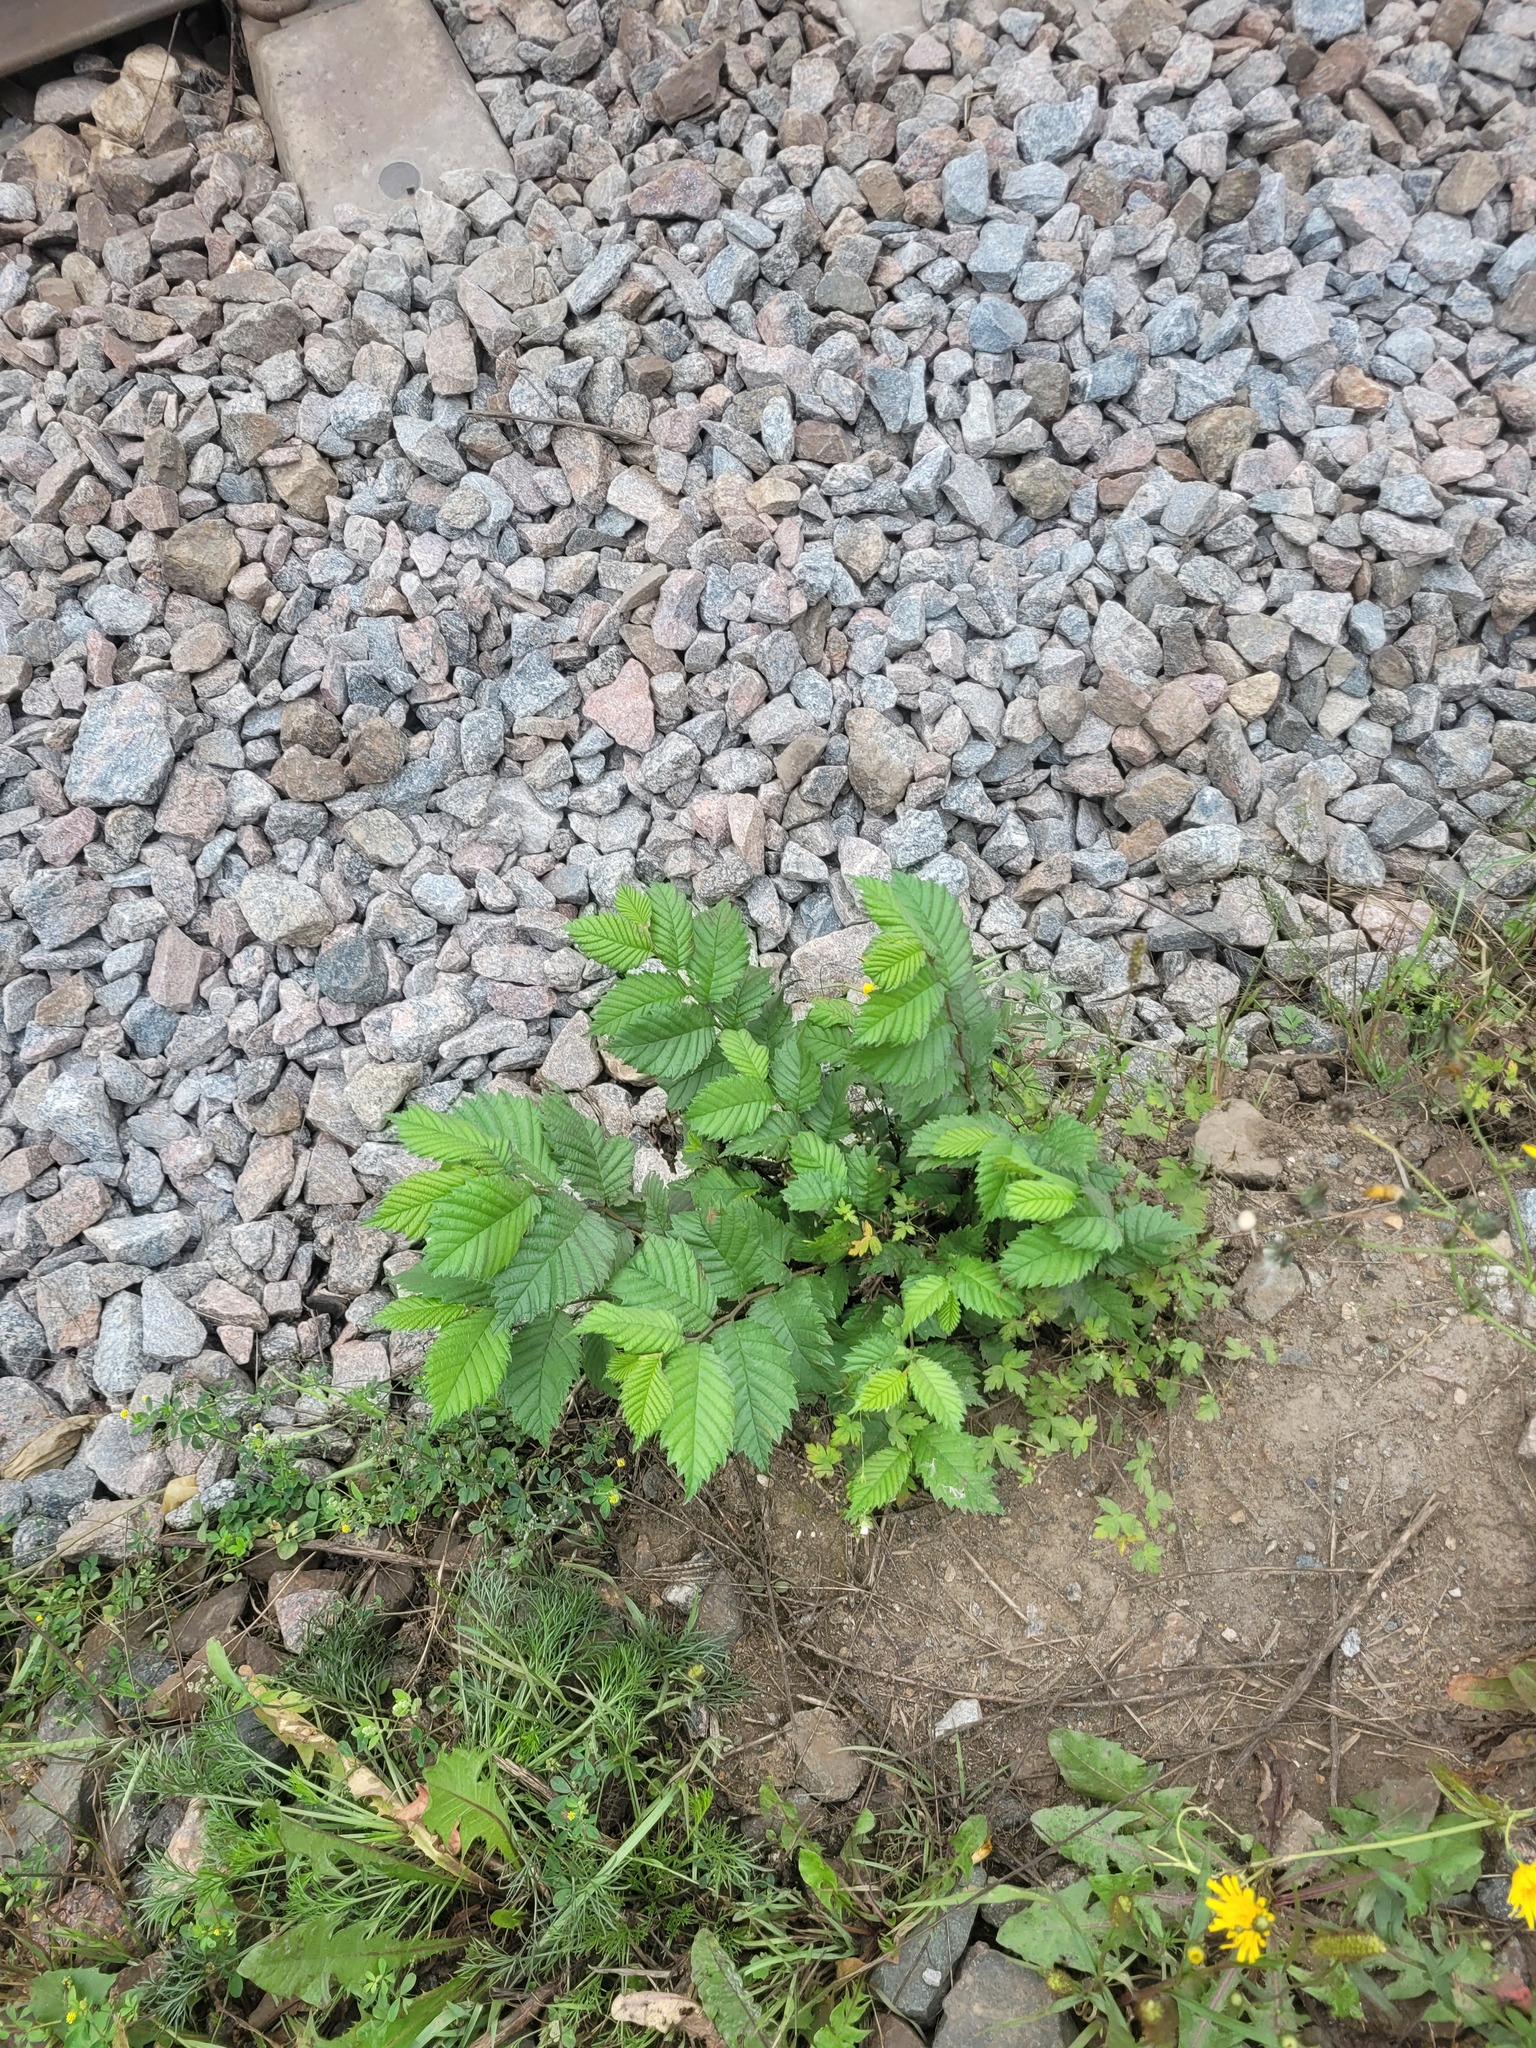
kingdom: Plantae
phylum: Tracheophyta
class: Magnoliopsida
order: Rosales
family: Ulmaceae
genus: Ulmus
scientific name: Ulmus laevis
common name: European white-elm
